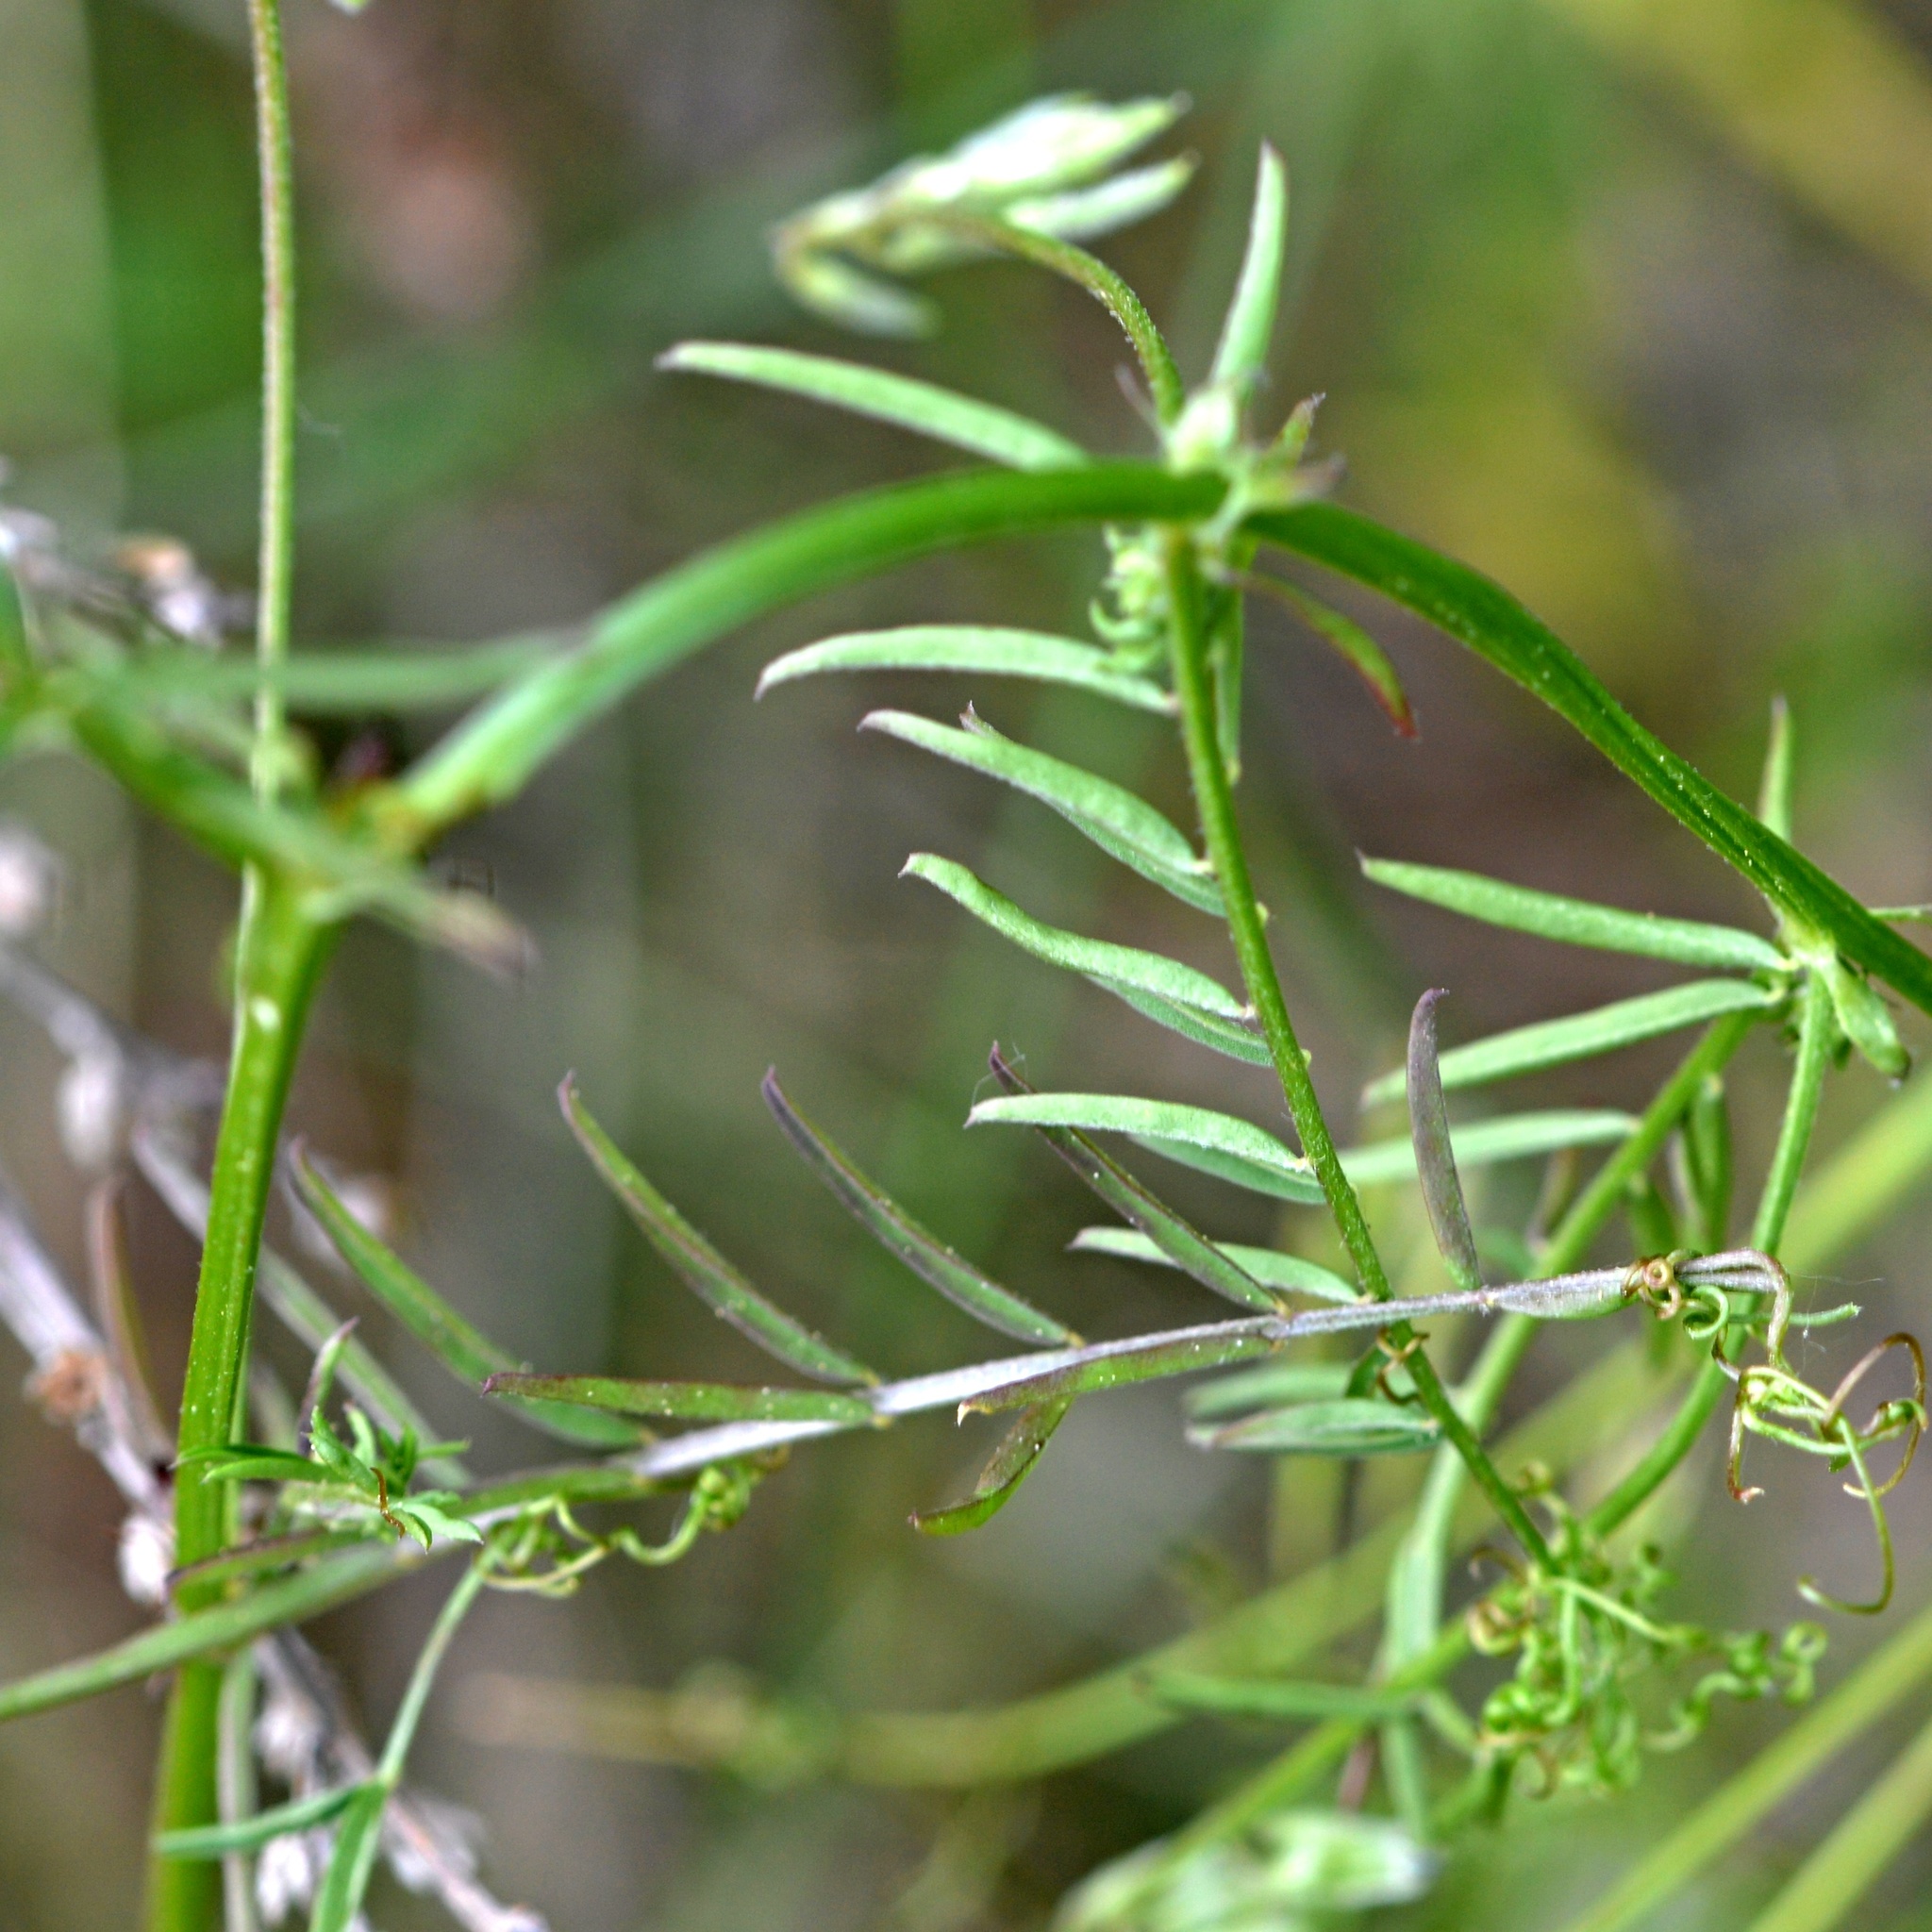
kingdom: Plantae
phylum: Tracheophyta
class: Magnoliopsida
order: Fabales
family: Fabaceae
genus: Vicia
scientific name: Vicia hirsuta
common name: Tiny vetch
